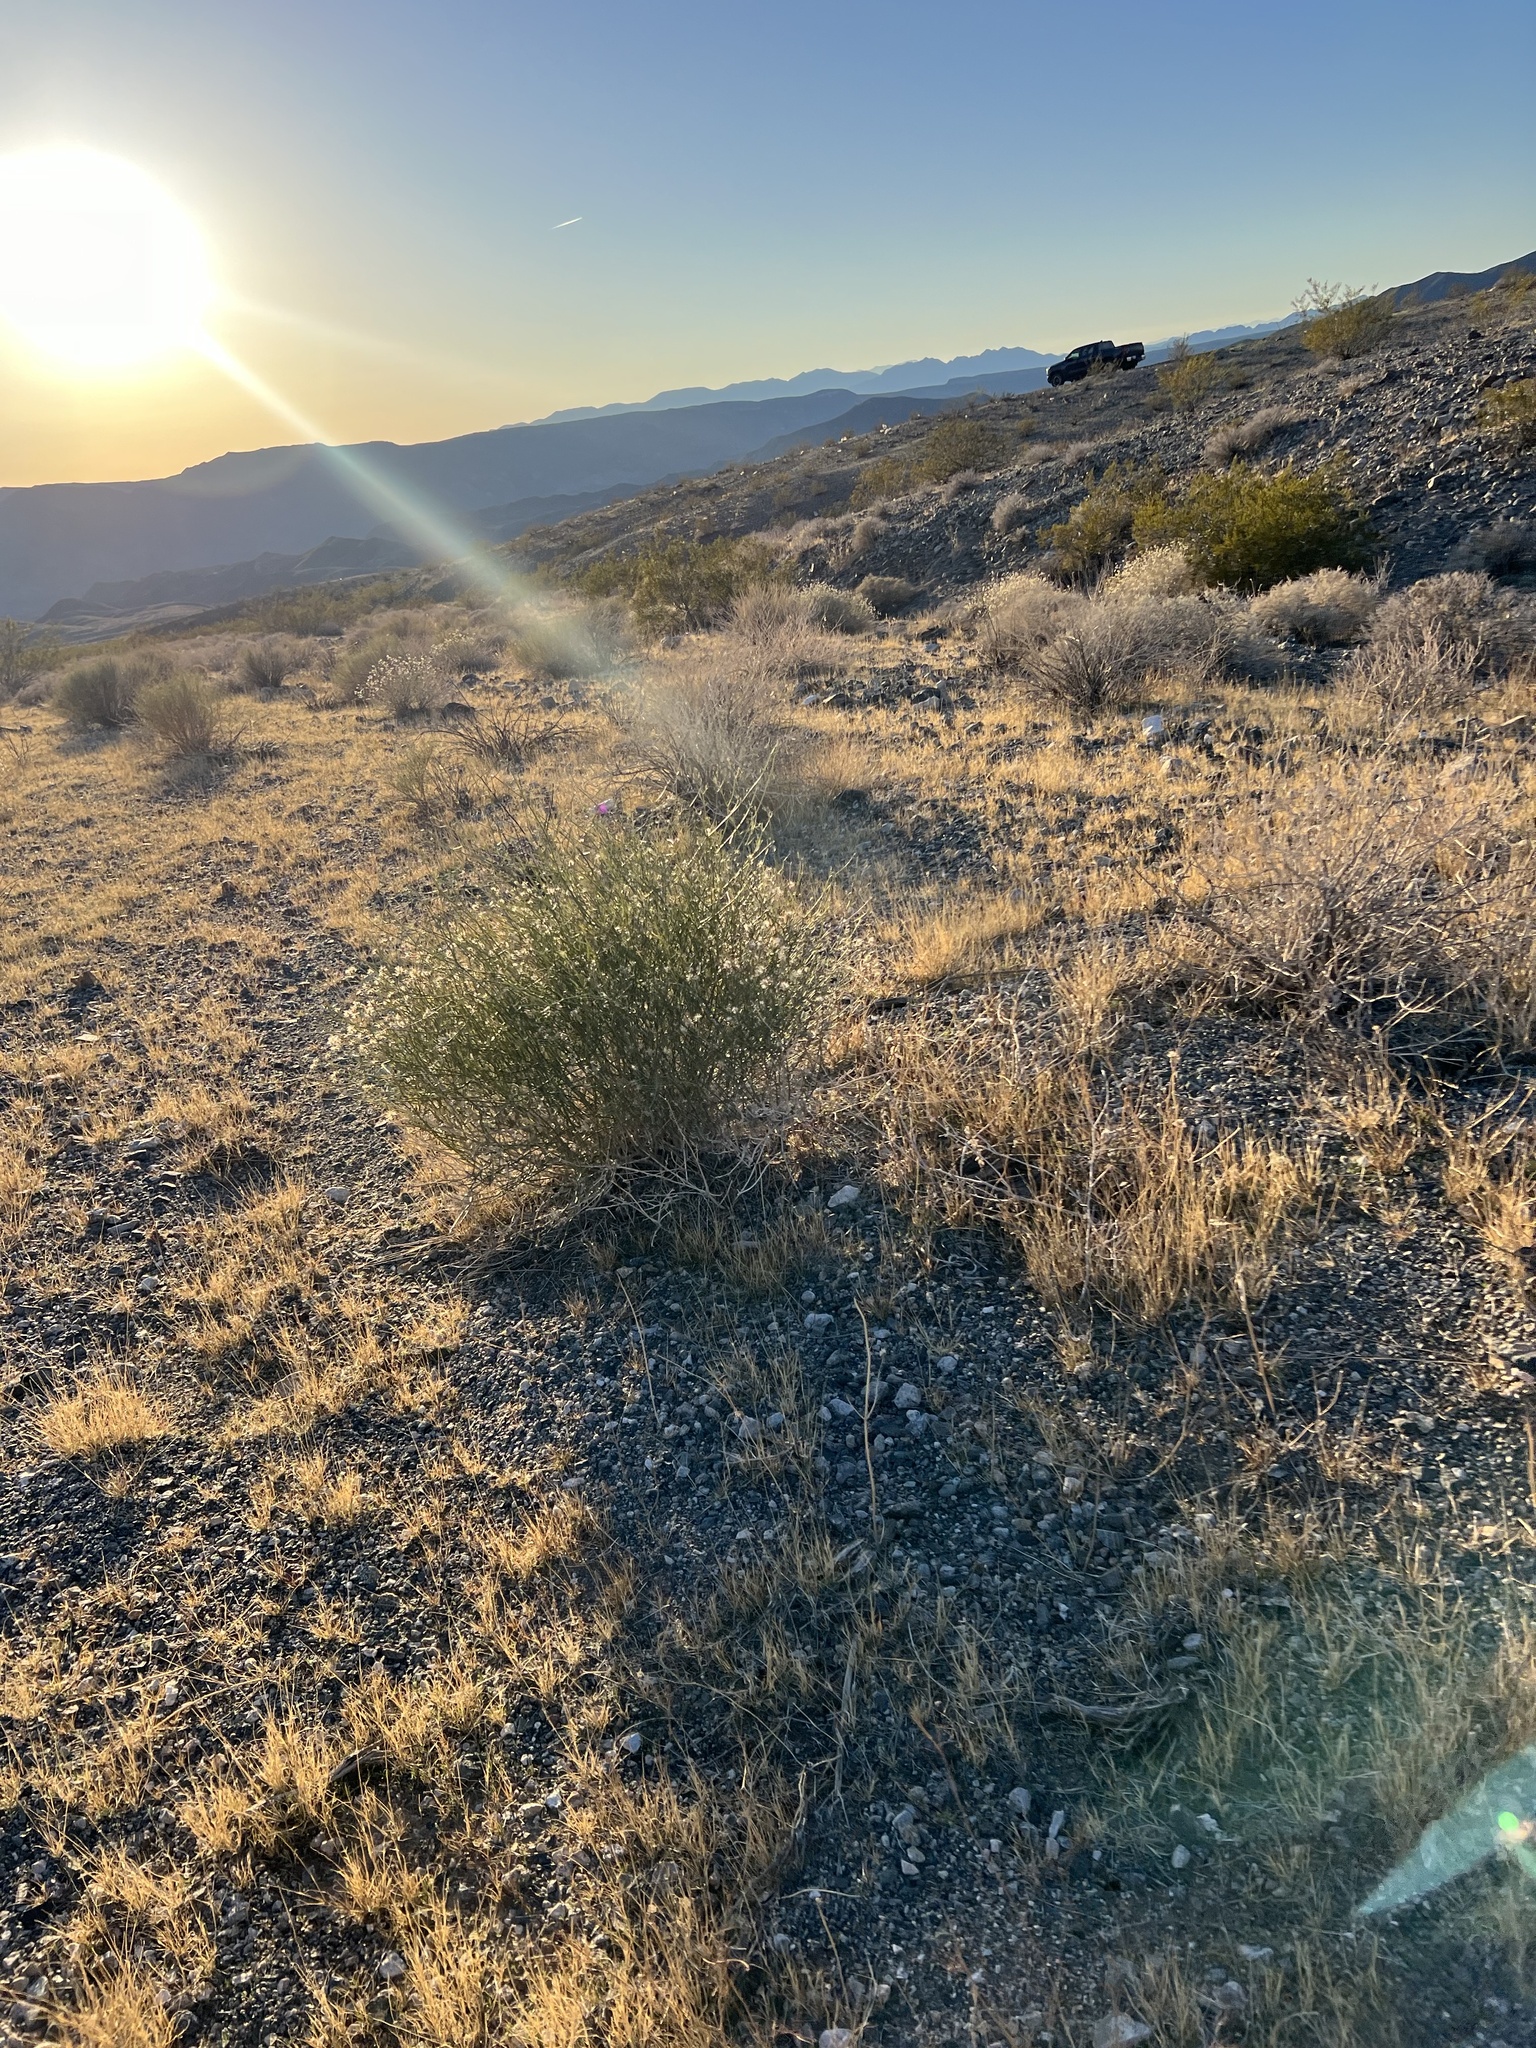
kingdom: Plantae
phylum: Tracheophyta
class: Magnoliopsida
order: Asterales
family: Asteraceae
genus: Bebbia
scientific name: Bebbia juncea
